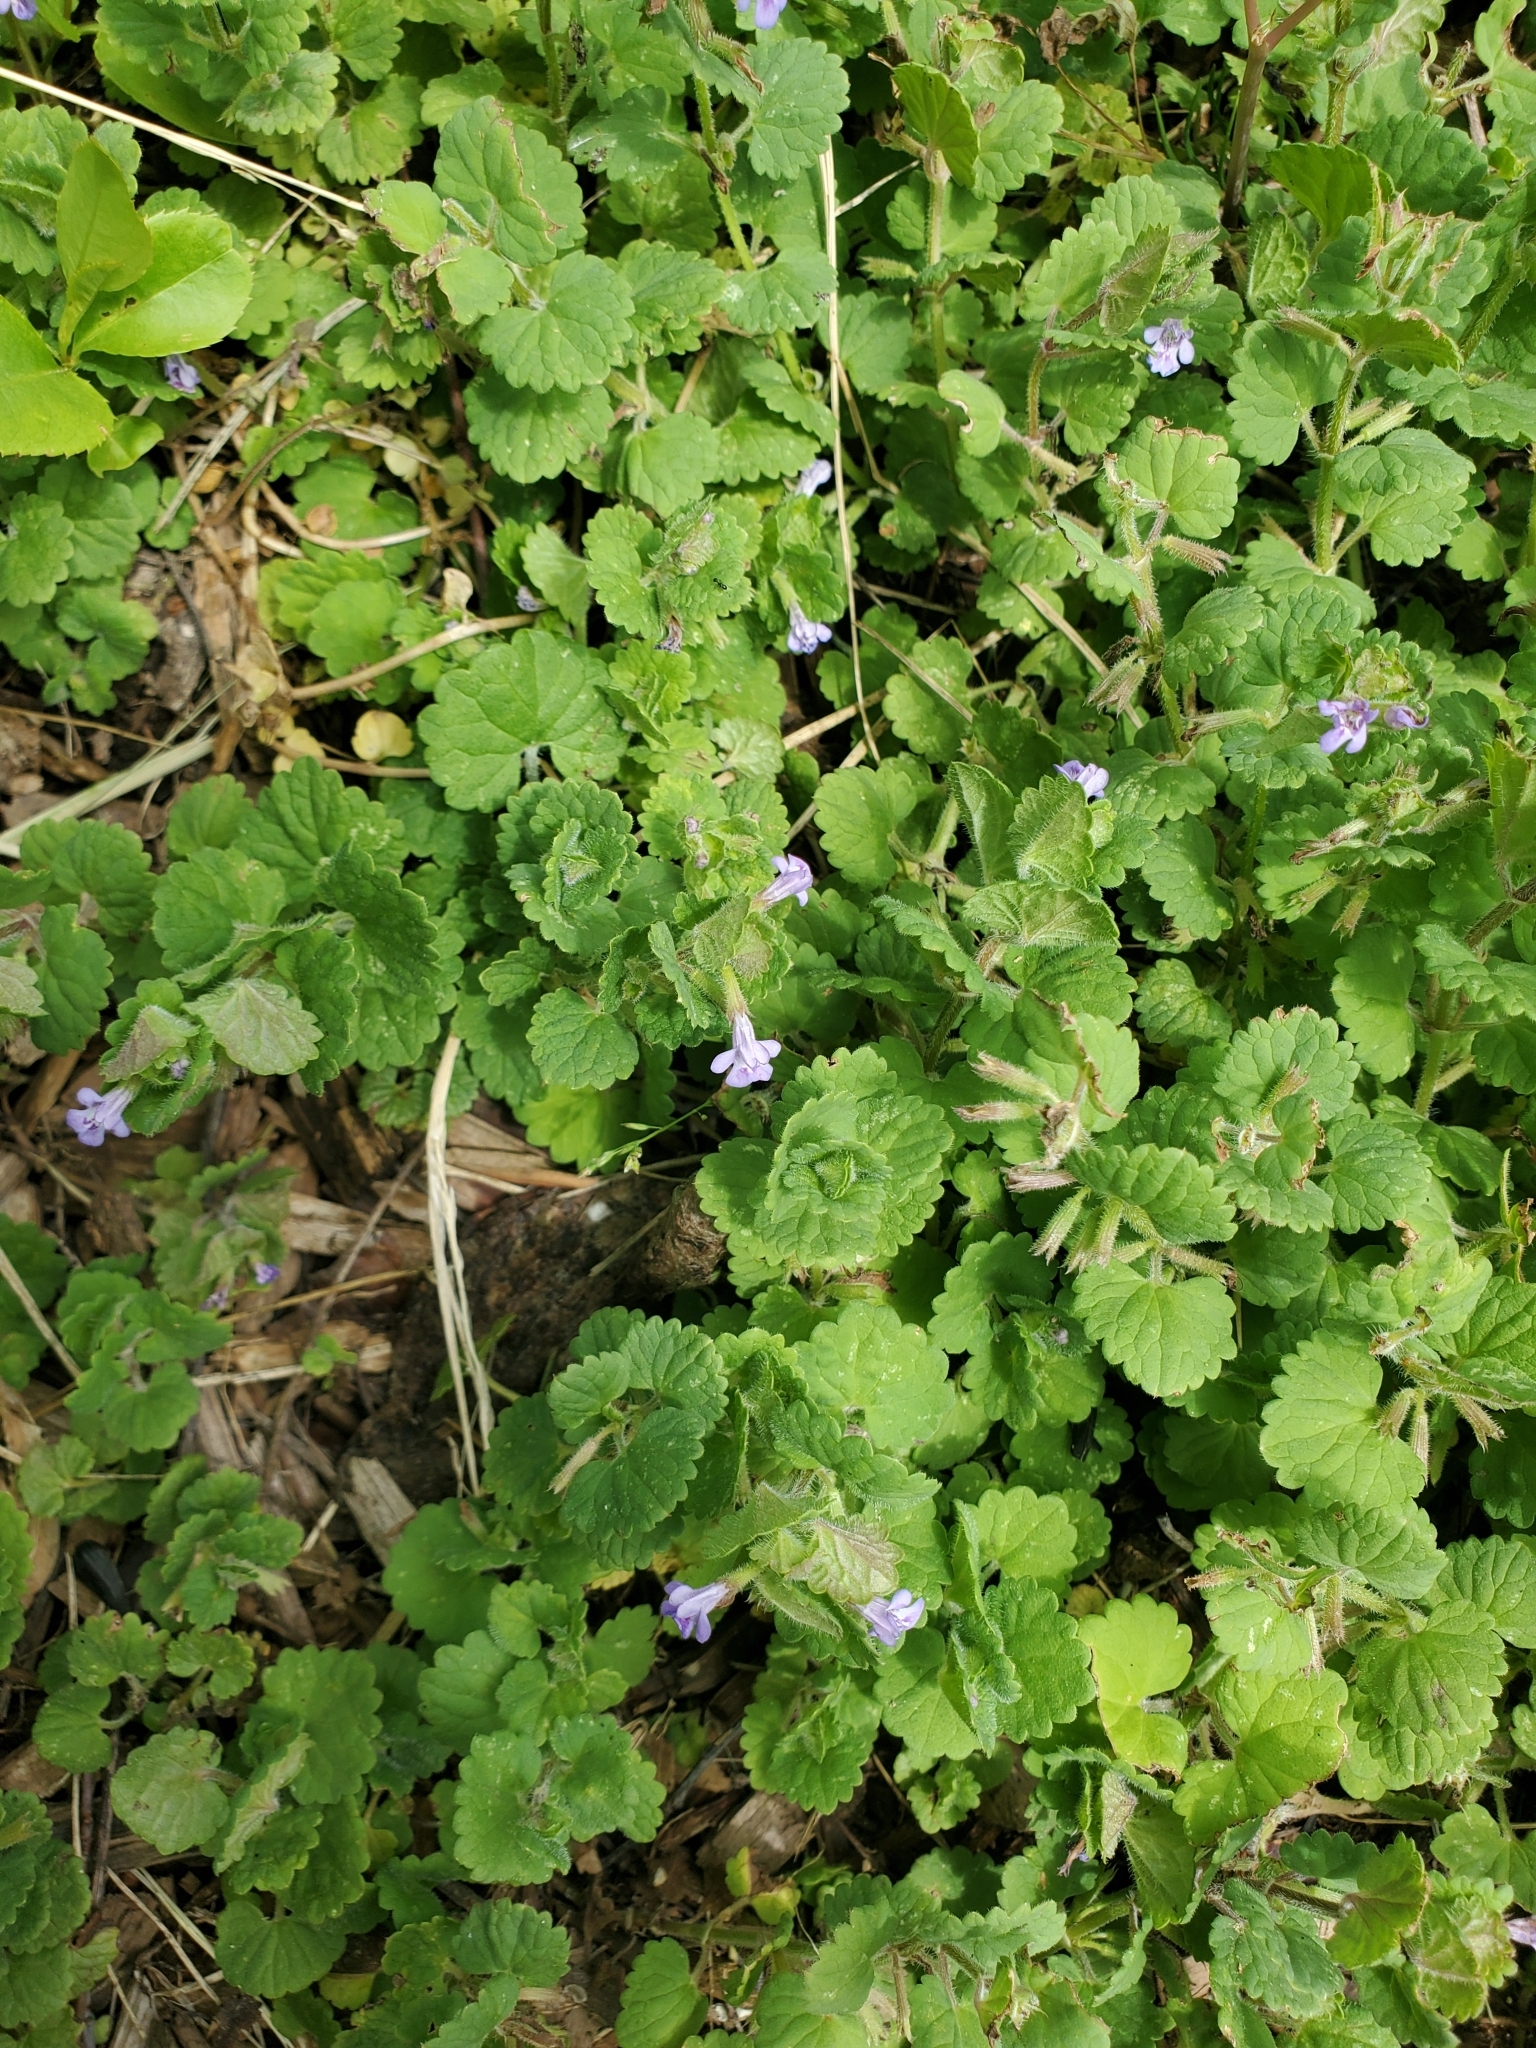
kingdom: Plantae
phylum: Tracheophyta
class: Magnoliopsida
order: Lamiales
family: Lamiaceae
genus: Glechoma
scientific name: Glechoma hederacea
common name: Ground ivy
